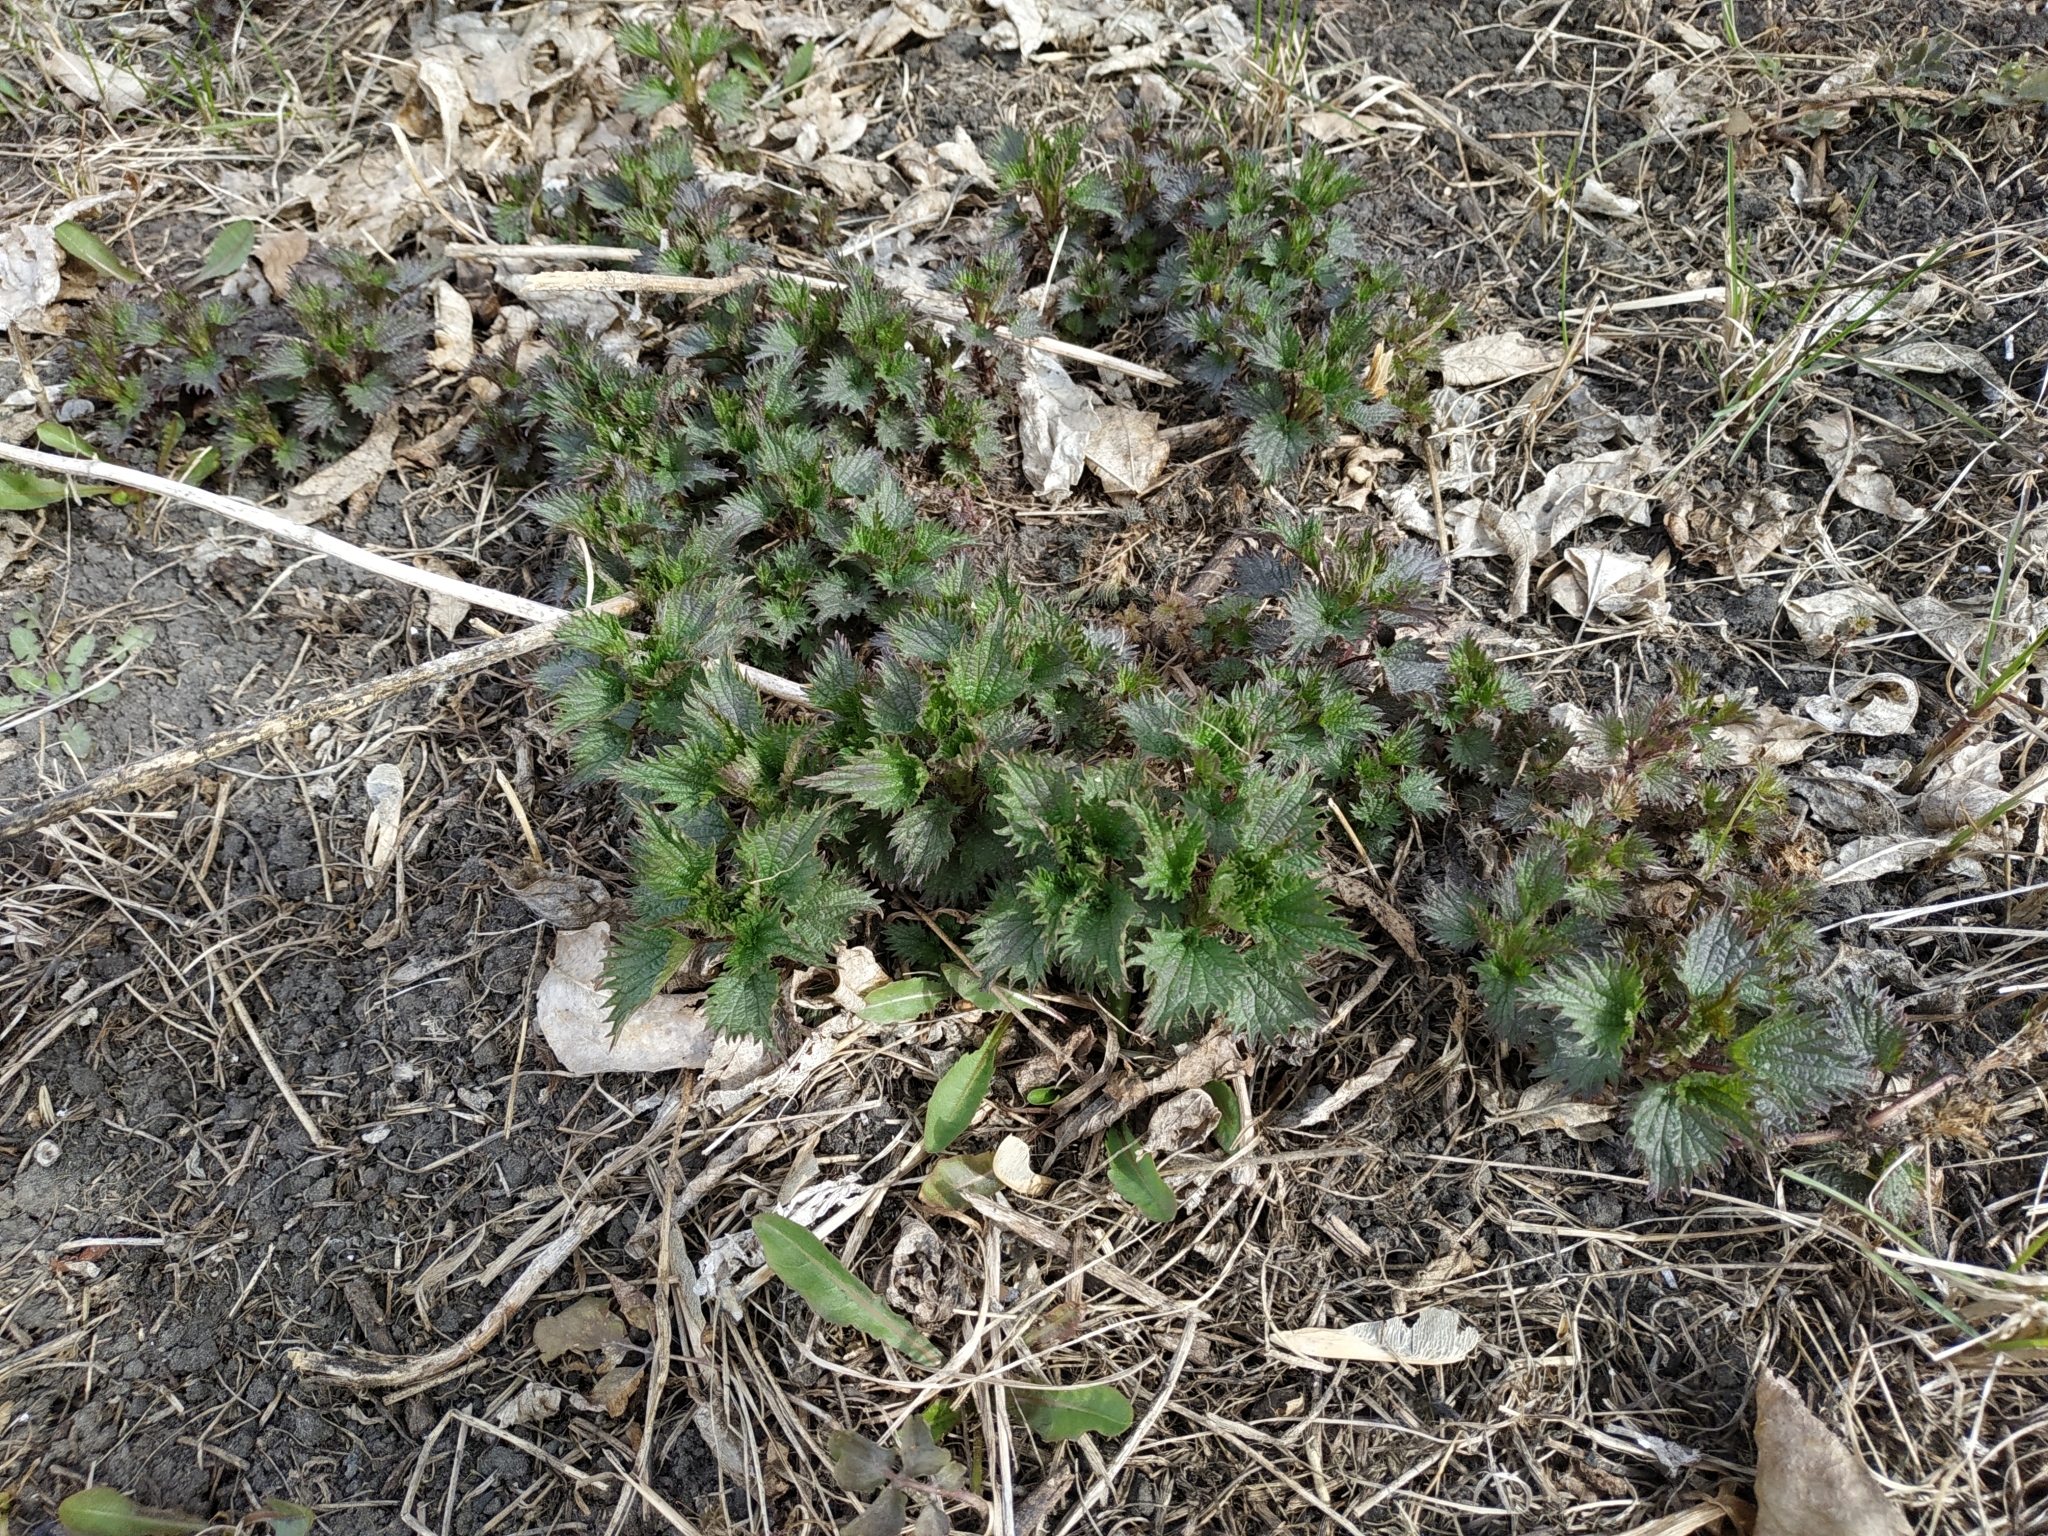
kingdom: Plantae
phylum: Tracheophyta
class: Magnoliopsida
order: Rosales
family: Urticaceae
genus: Urtica
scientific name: Urtica dioica
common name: Common nettle
